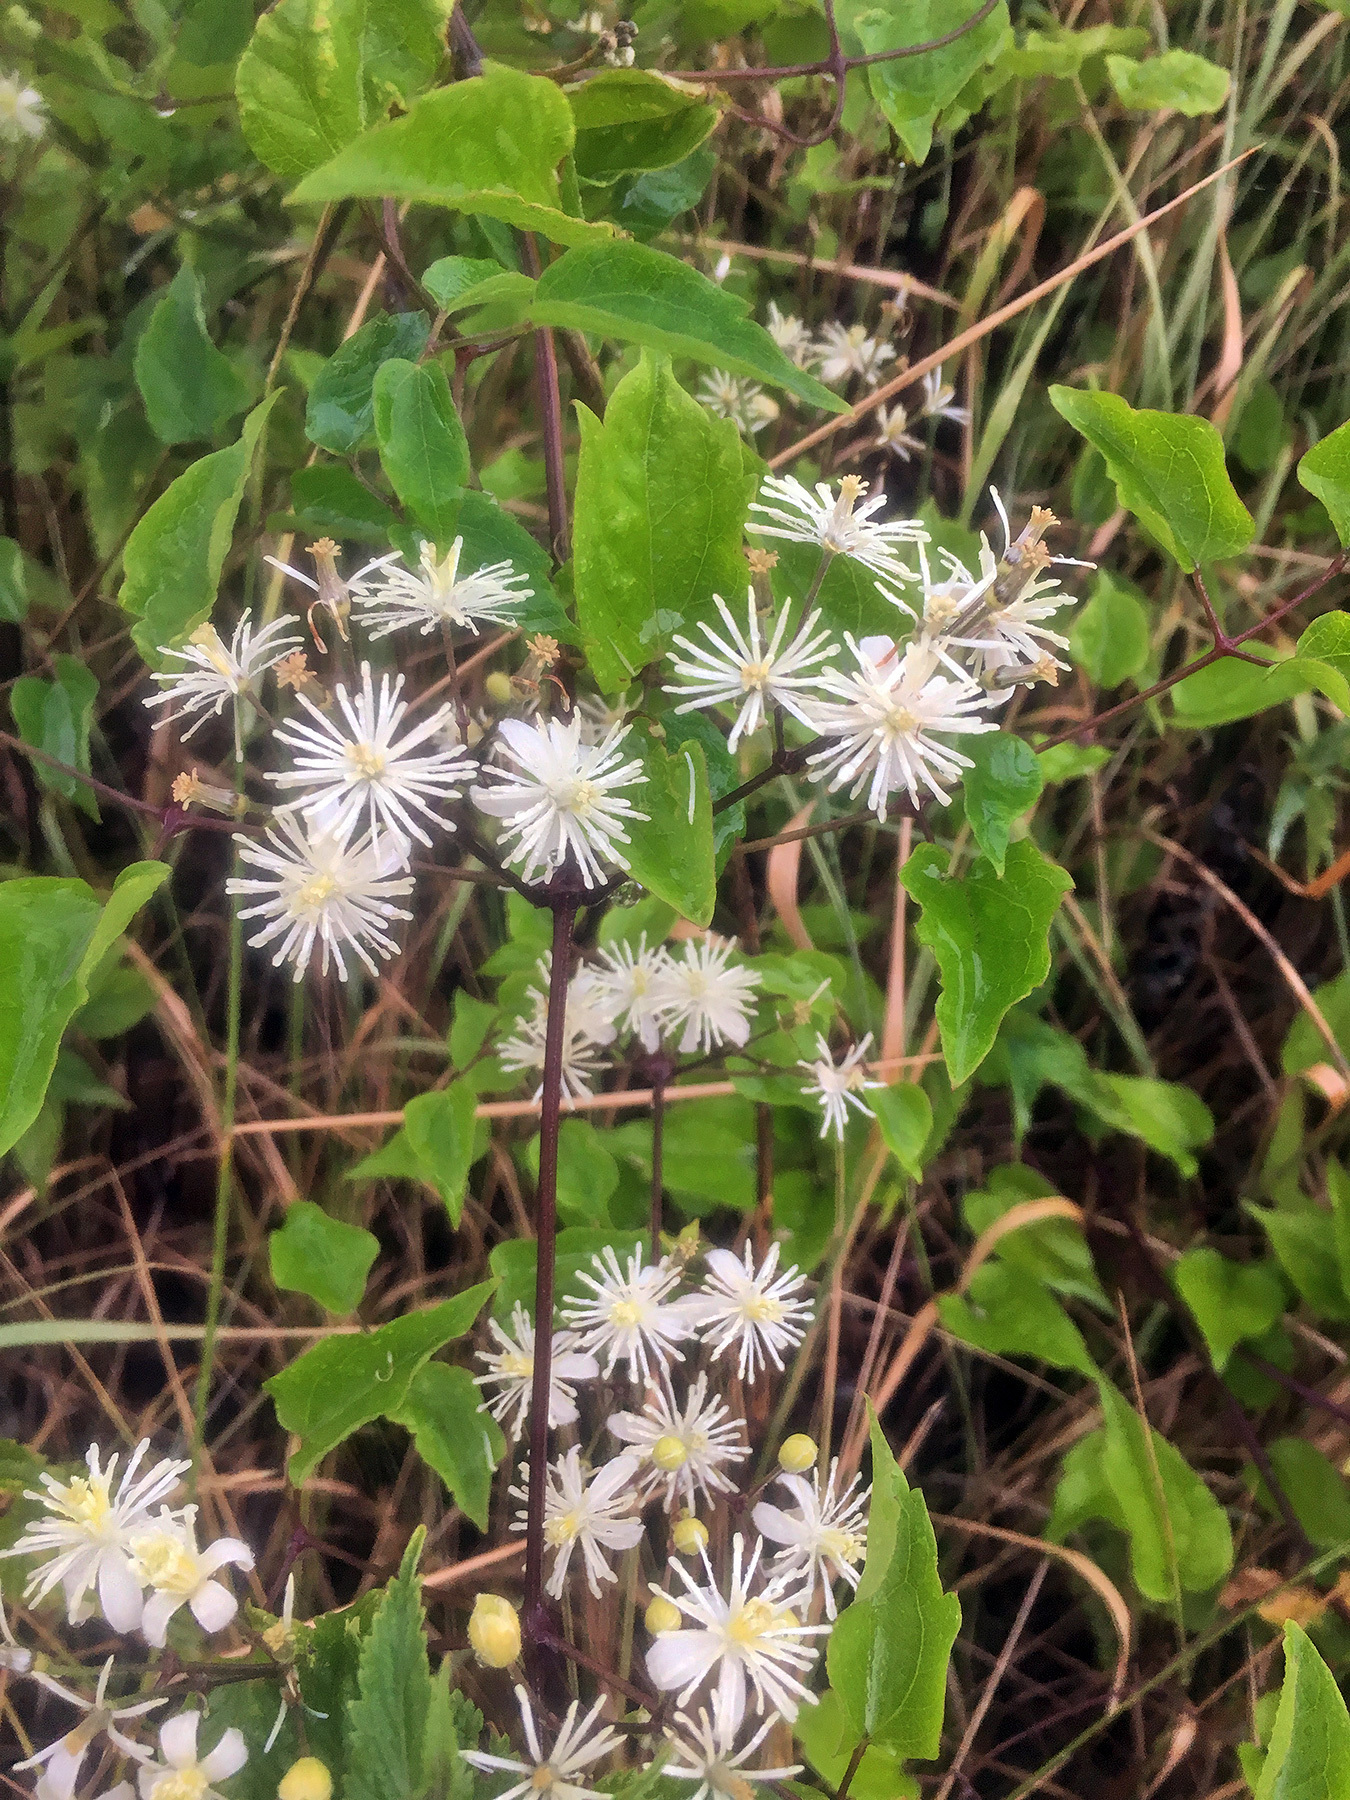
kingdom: Plantae
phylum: Tracheophyta
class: Magnoliopsida
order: Ranunculales
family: Ranunculaceae
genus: Clematis
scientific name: Clematis vitalba
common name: Evergreen clematis
